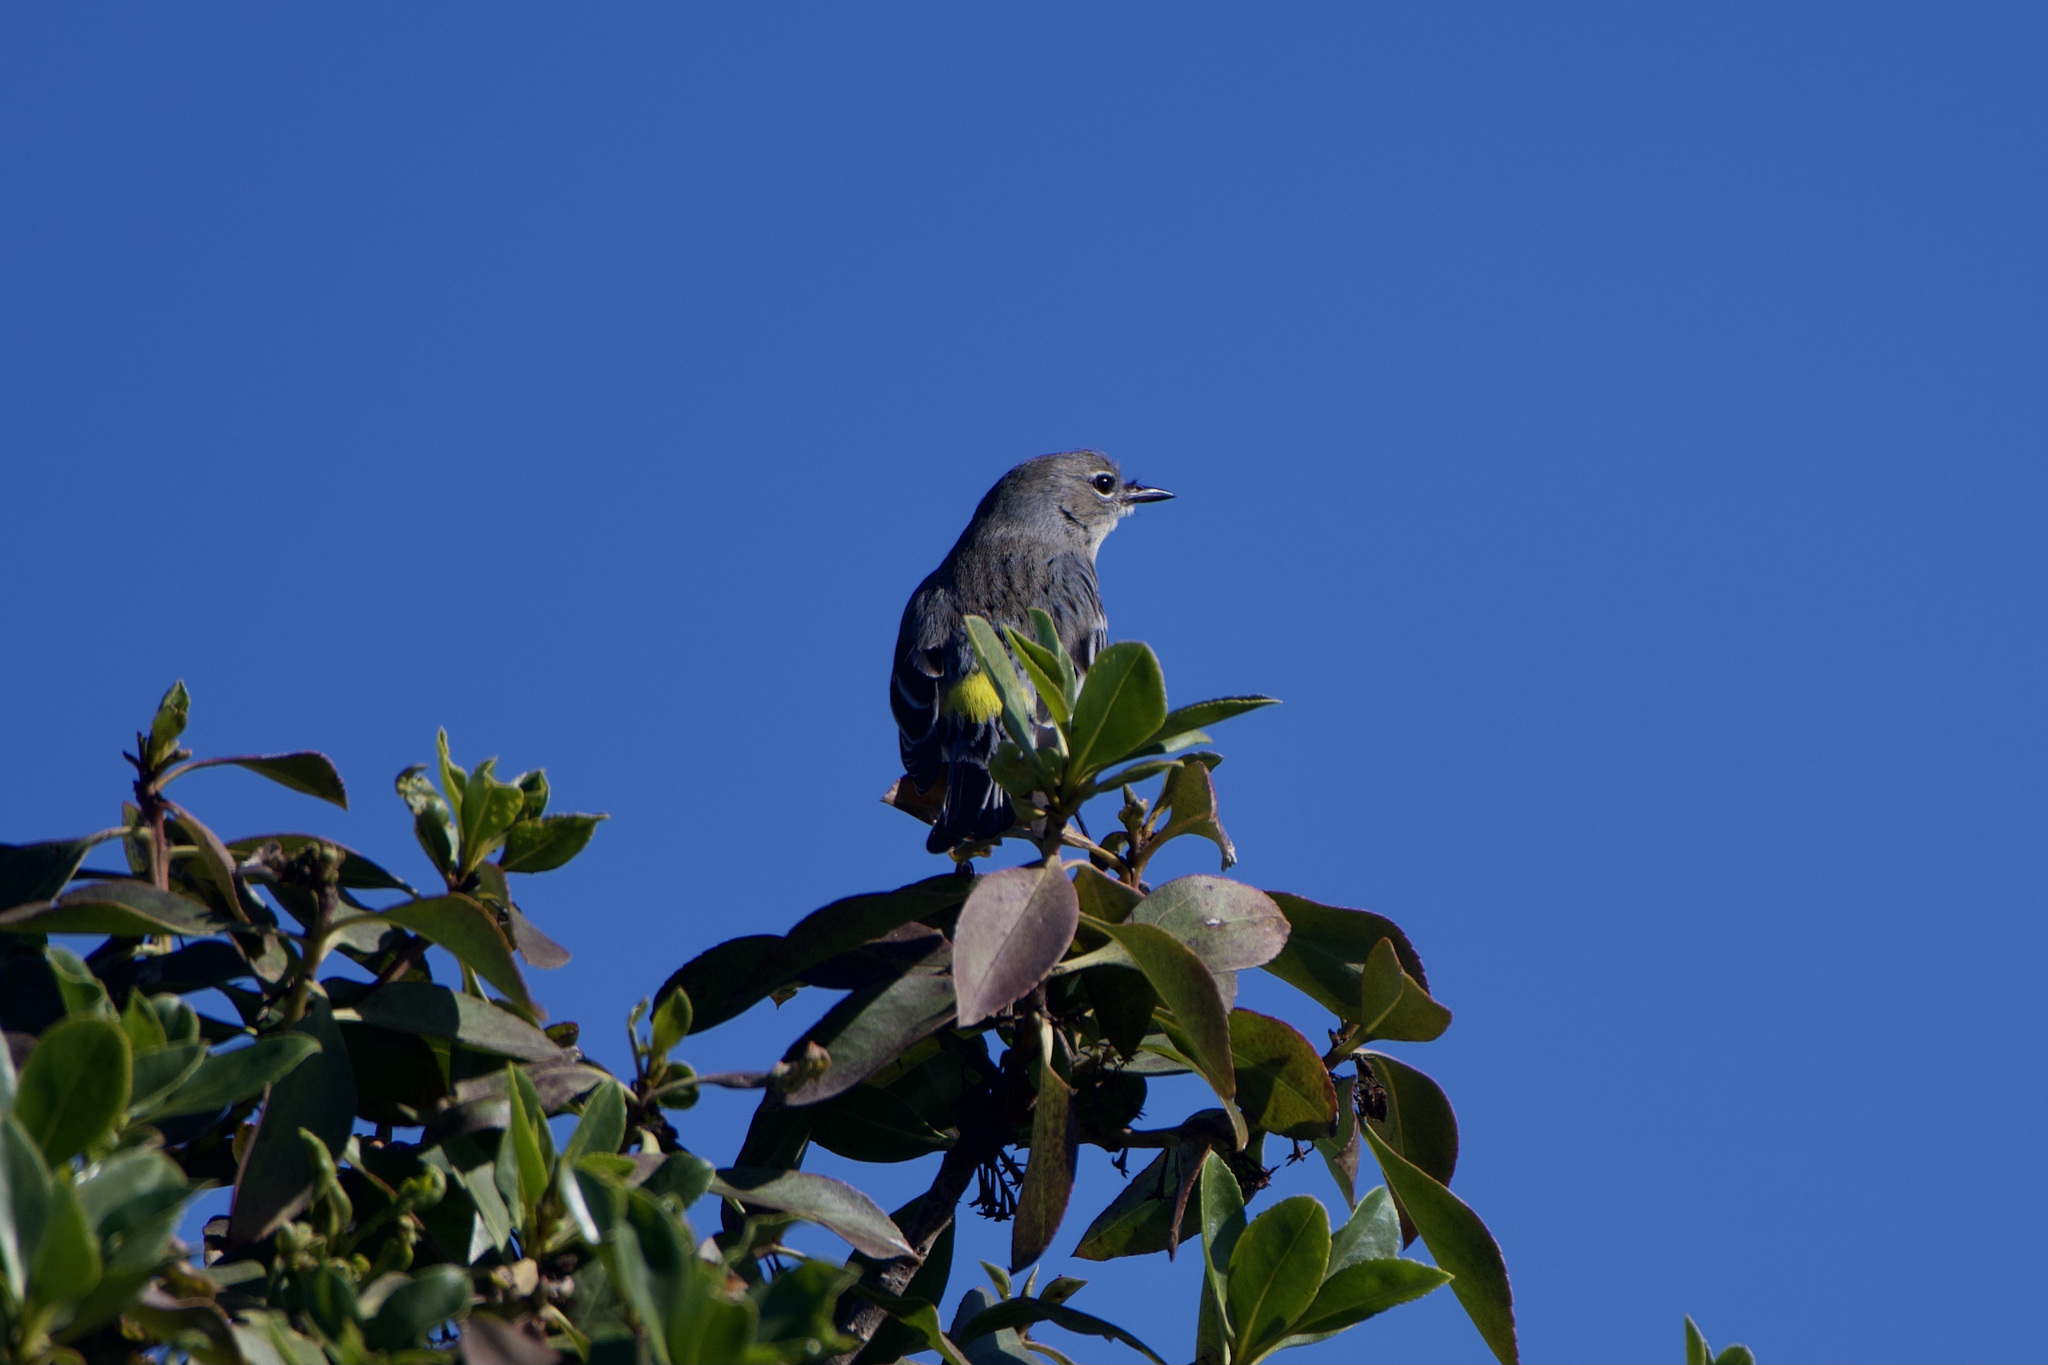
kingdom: Animalia
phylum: Chordata
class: Aves
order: Passeriformes
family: Parulidae
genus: Setophaga
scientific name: Setophaga coronata
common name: Myrtle warbler
